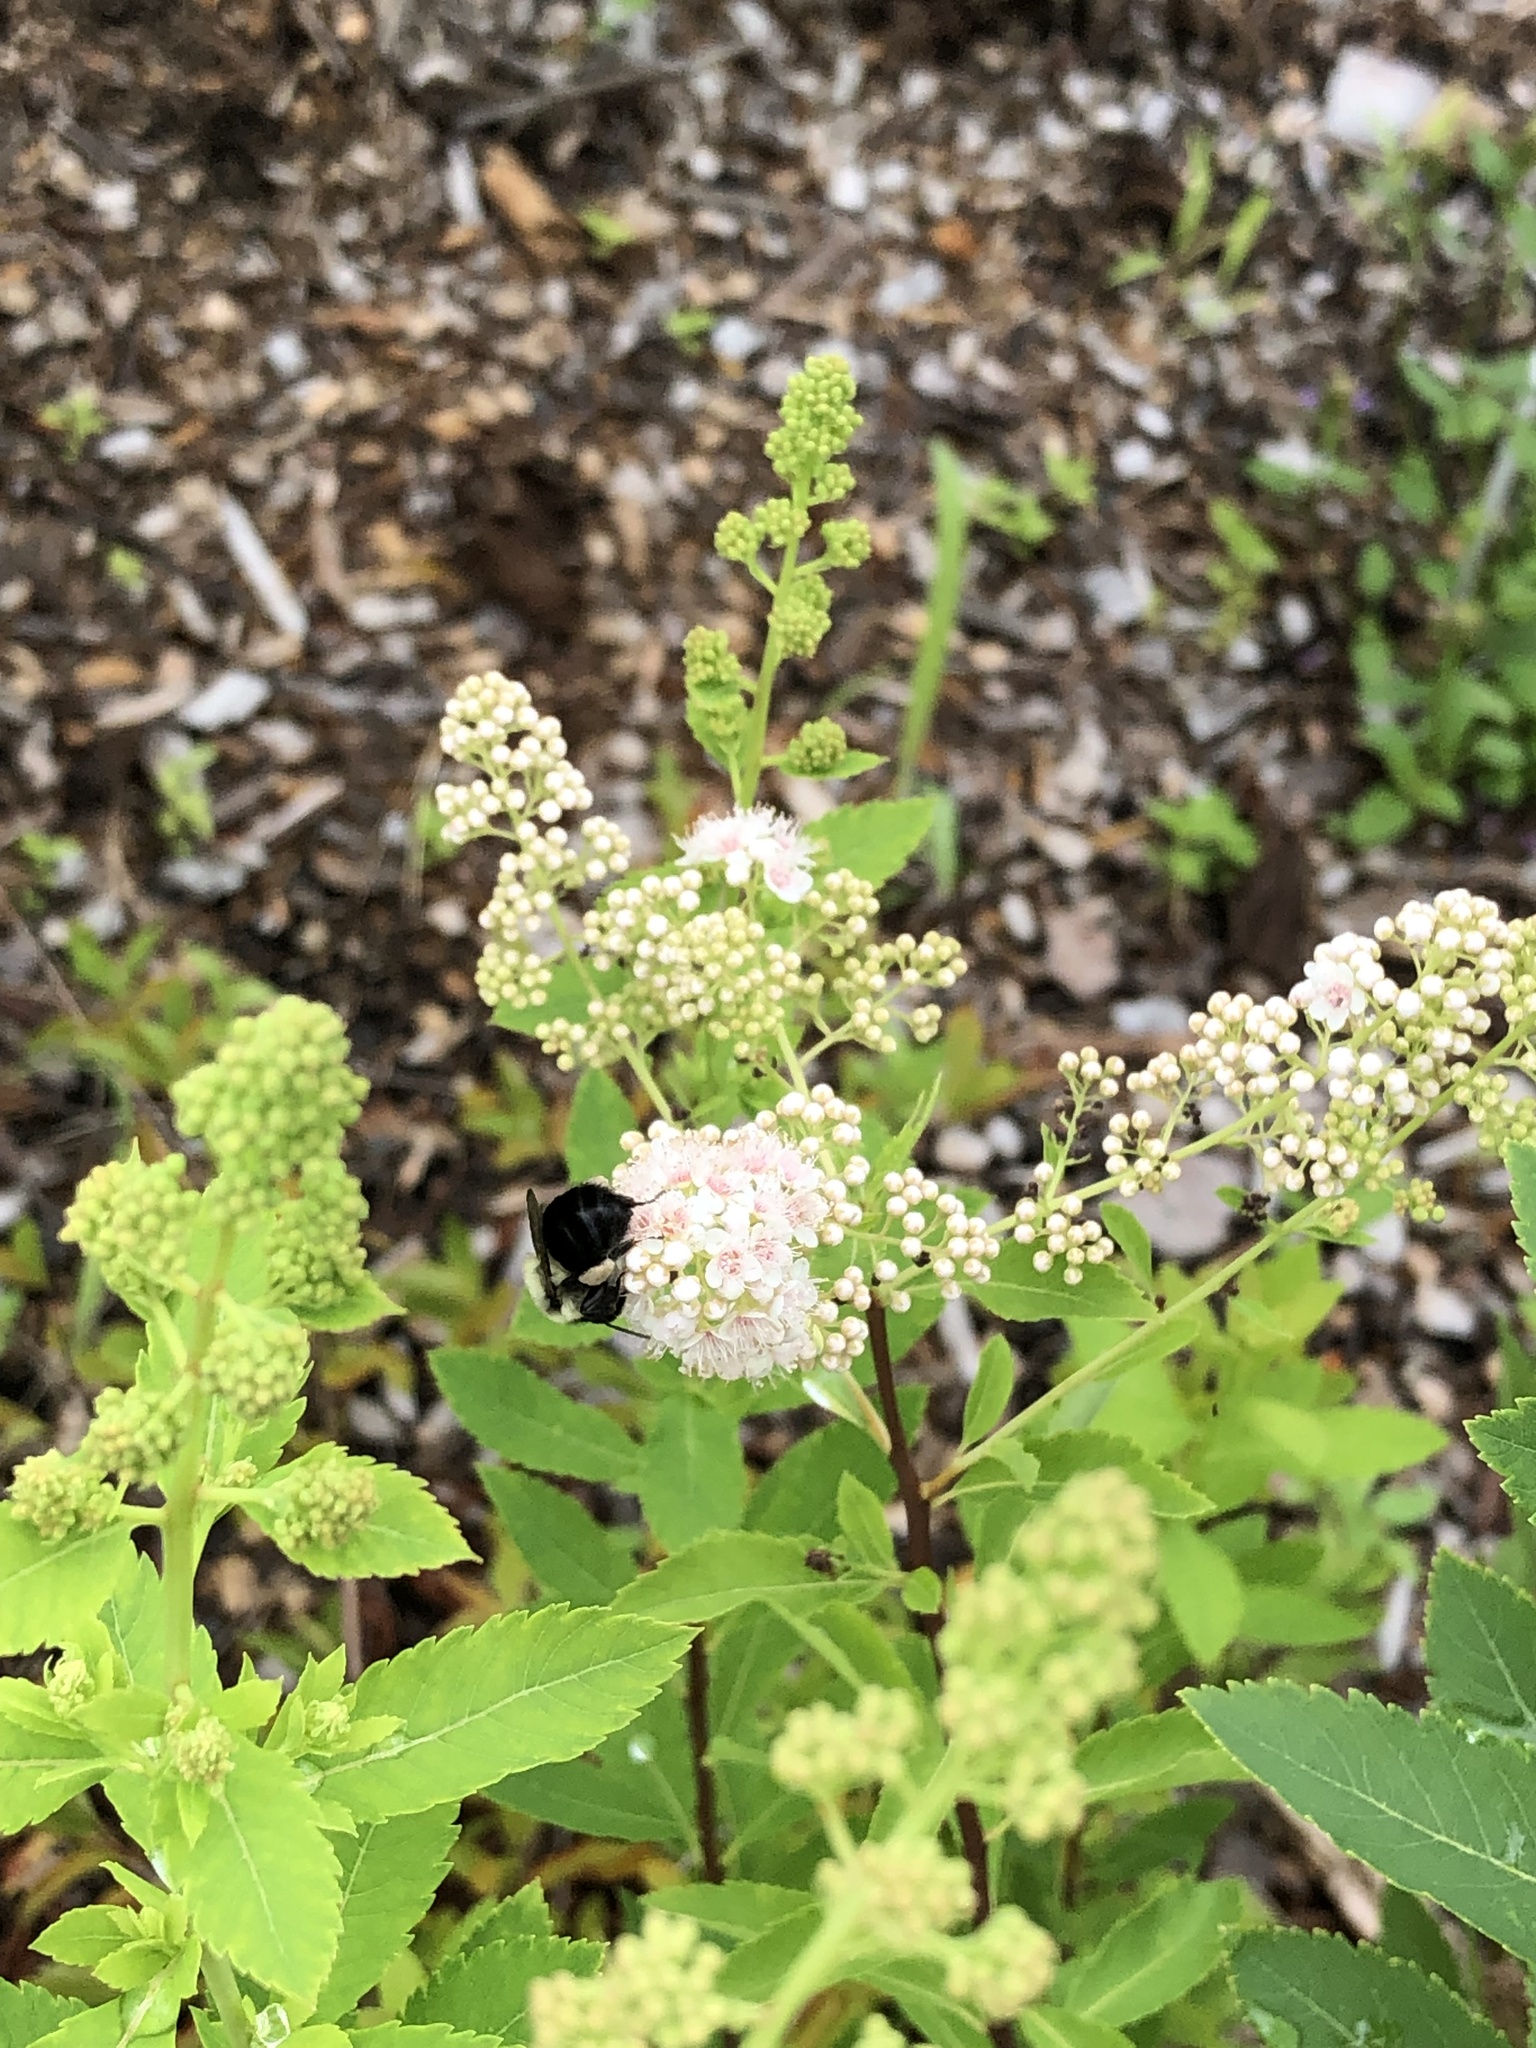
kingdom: Animalia
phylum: Arthropoda
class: Insecta
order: Hymenoptera
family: Apidae
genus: Bombus
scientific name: Bombus impatiens
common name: Common eastern bumble bee
